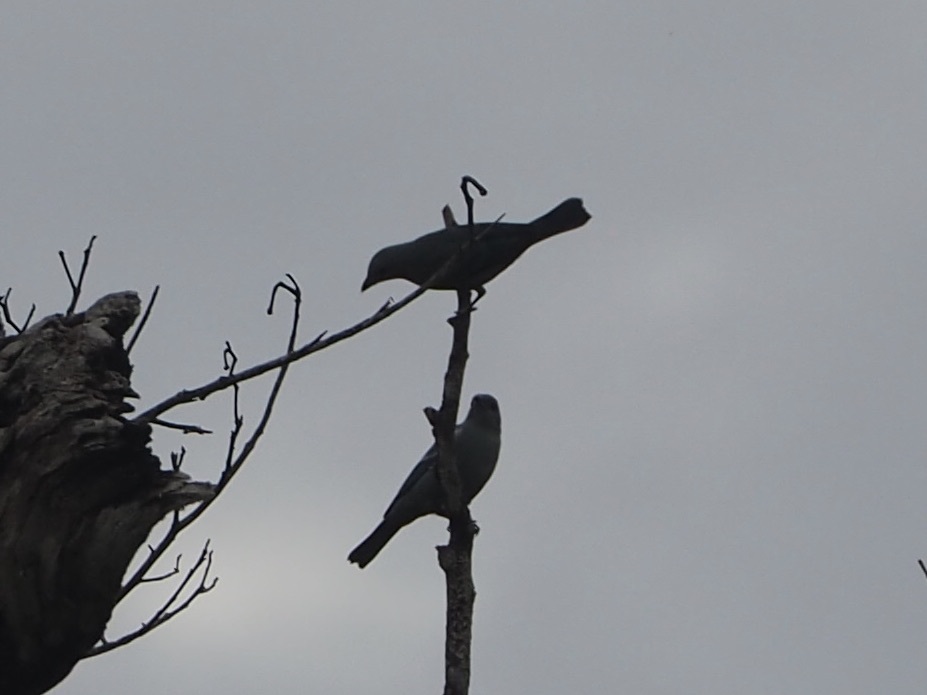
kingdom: Animalia
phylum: Chordata
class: Aves
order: Passeriformes
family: Thraupidae
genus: Thraupis
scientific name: Thraupis episcopus
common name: Blue-grey tanager
